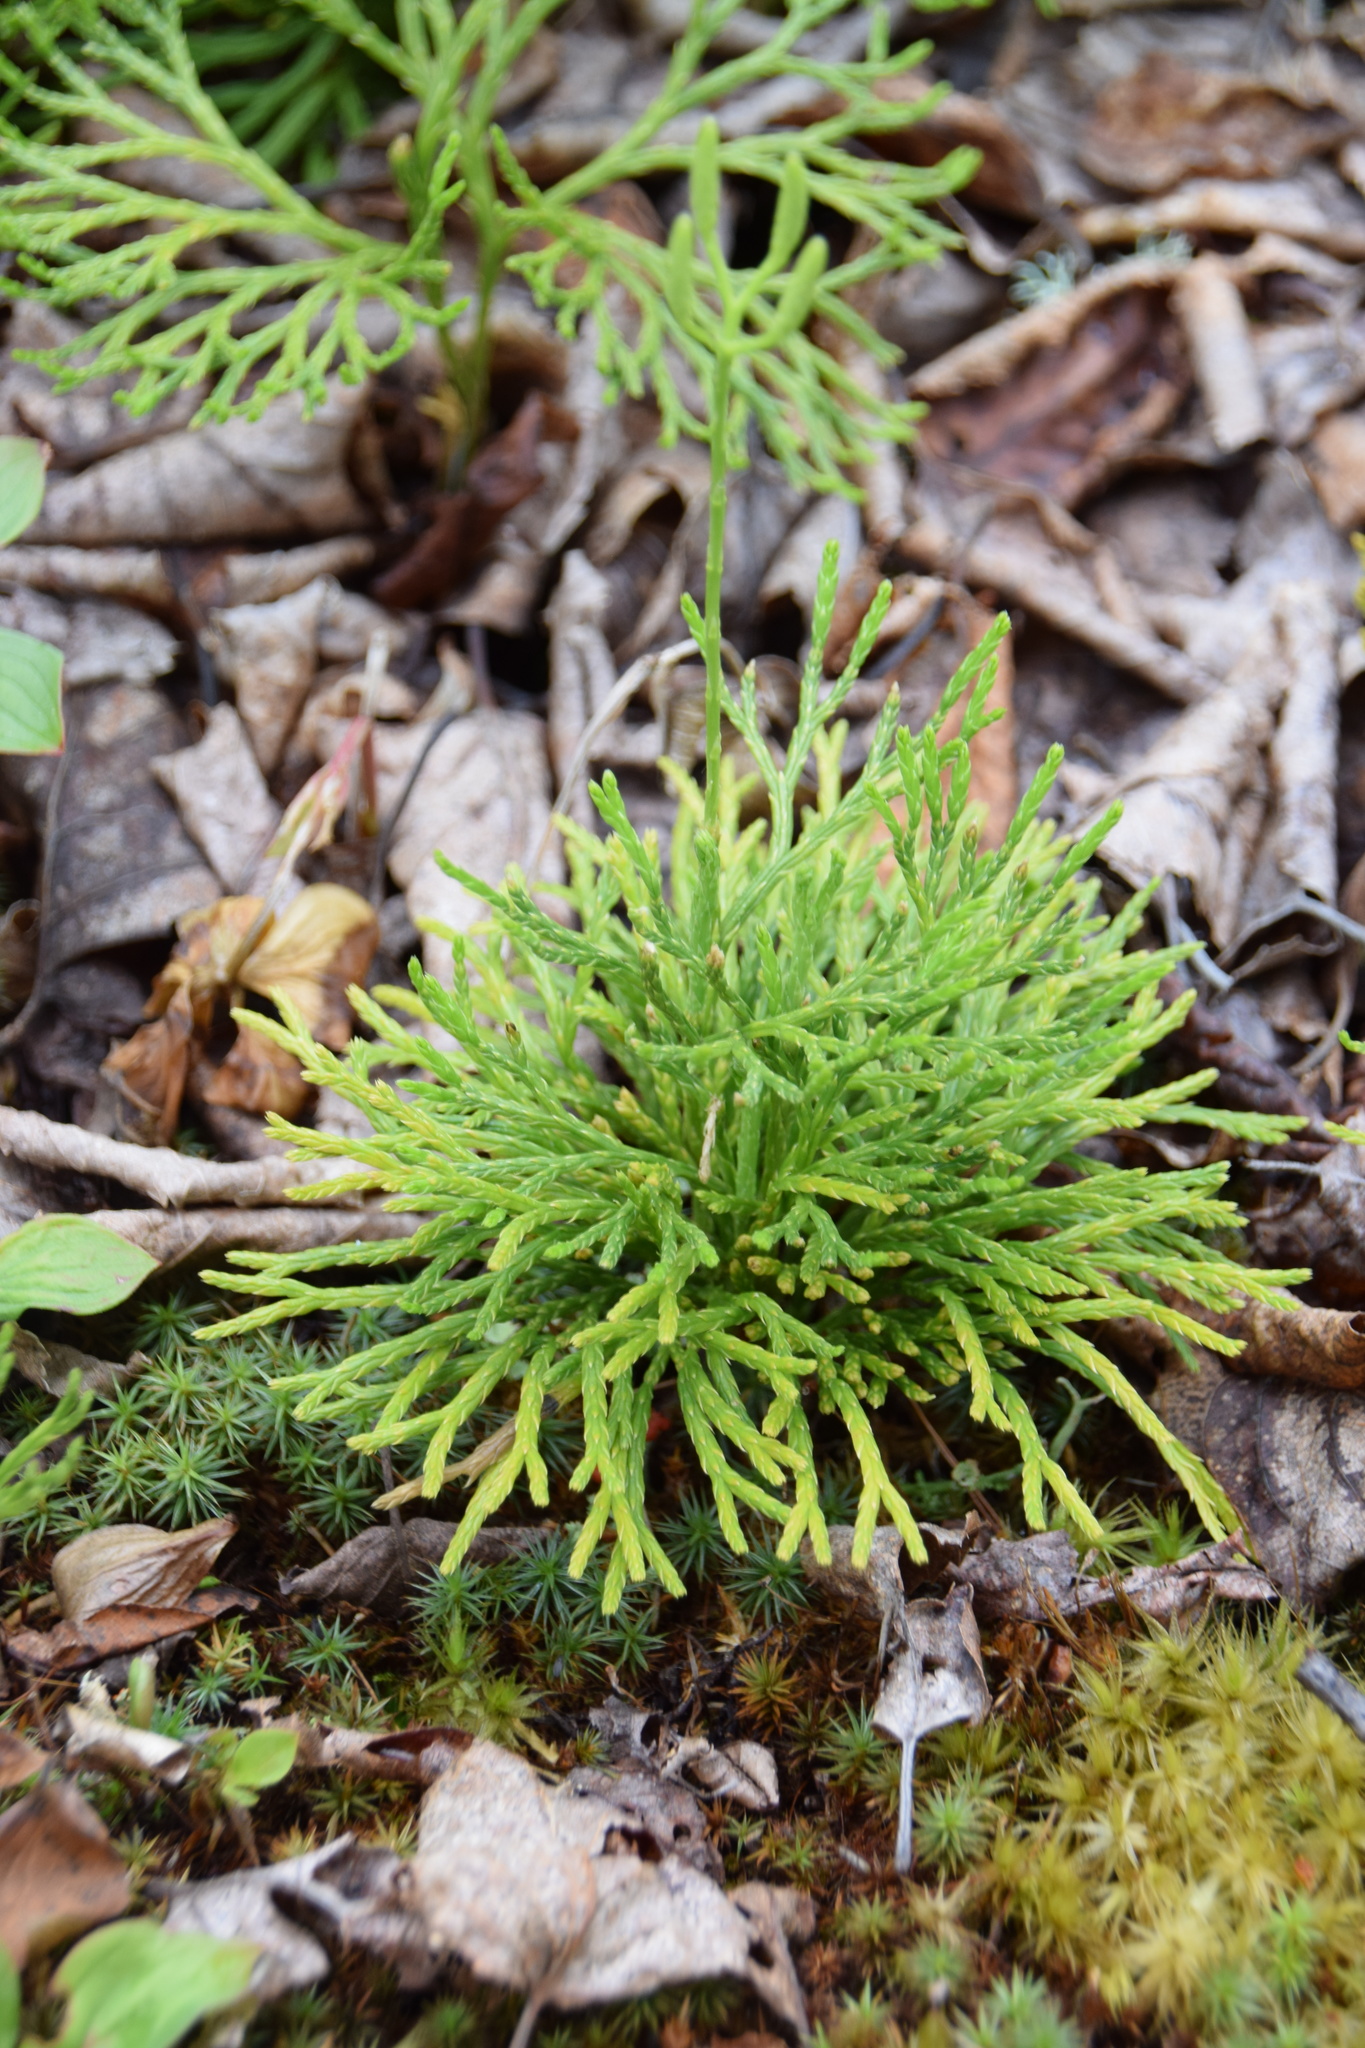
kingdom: Plantae
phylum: Tracheophyta
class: Lycopodiopsida
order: Lycopodiales
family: Lycopodiaceae
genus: Diphasiastrum
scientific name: Diphasiastrum tristachyum
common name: Blue ground-cedar
